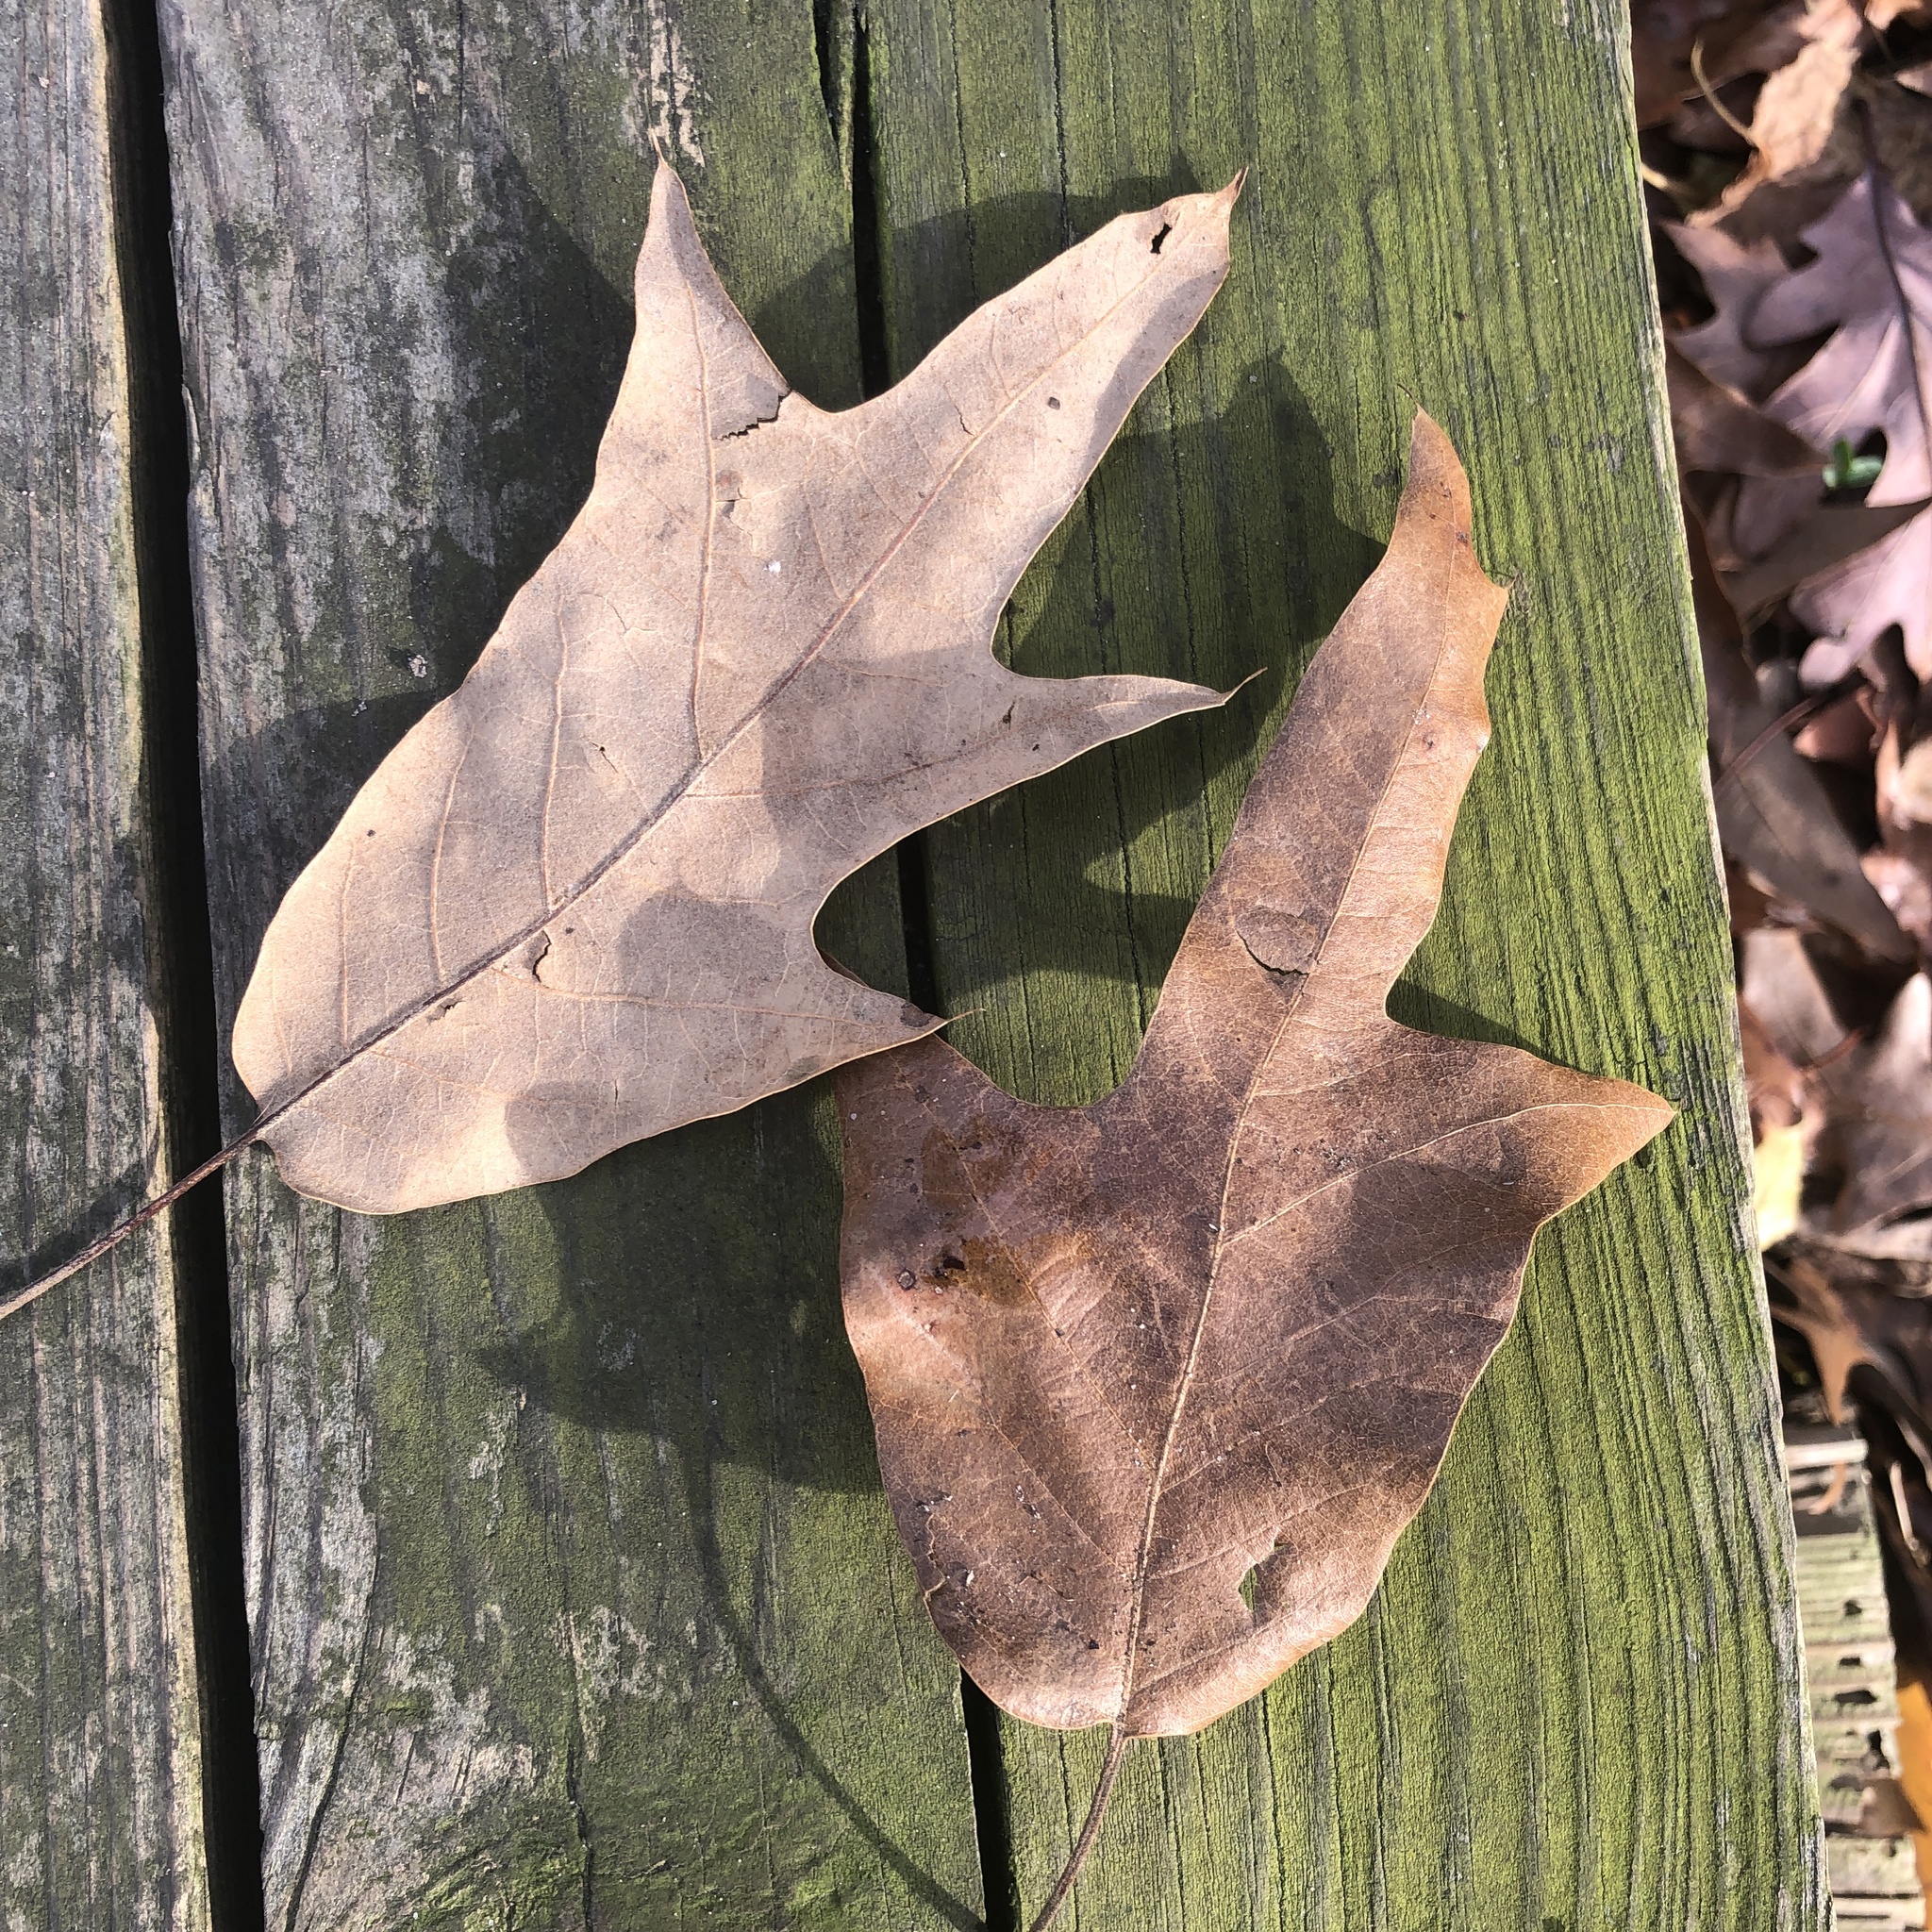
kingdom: Plantae
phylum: Tracheophyta
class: Magnoliopsida
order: Fagales
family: Fagaceae
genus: Quercus
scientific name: Quercus falcata
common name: Southern red oak
